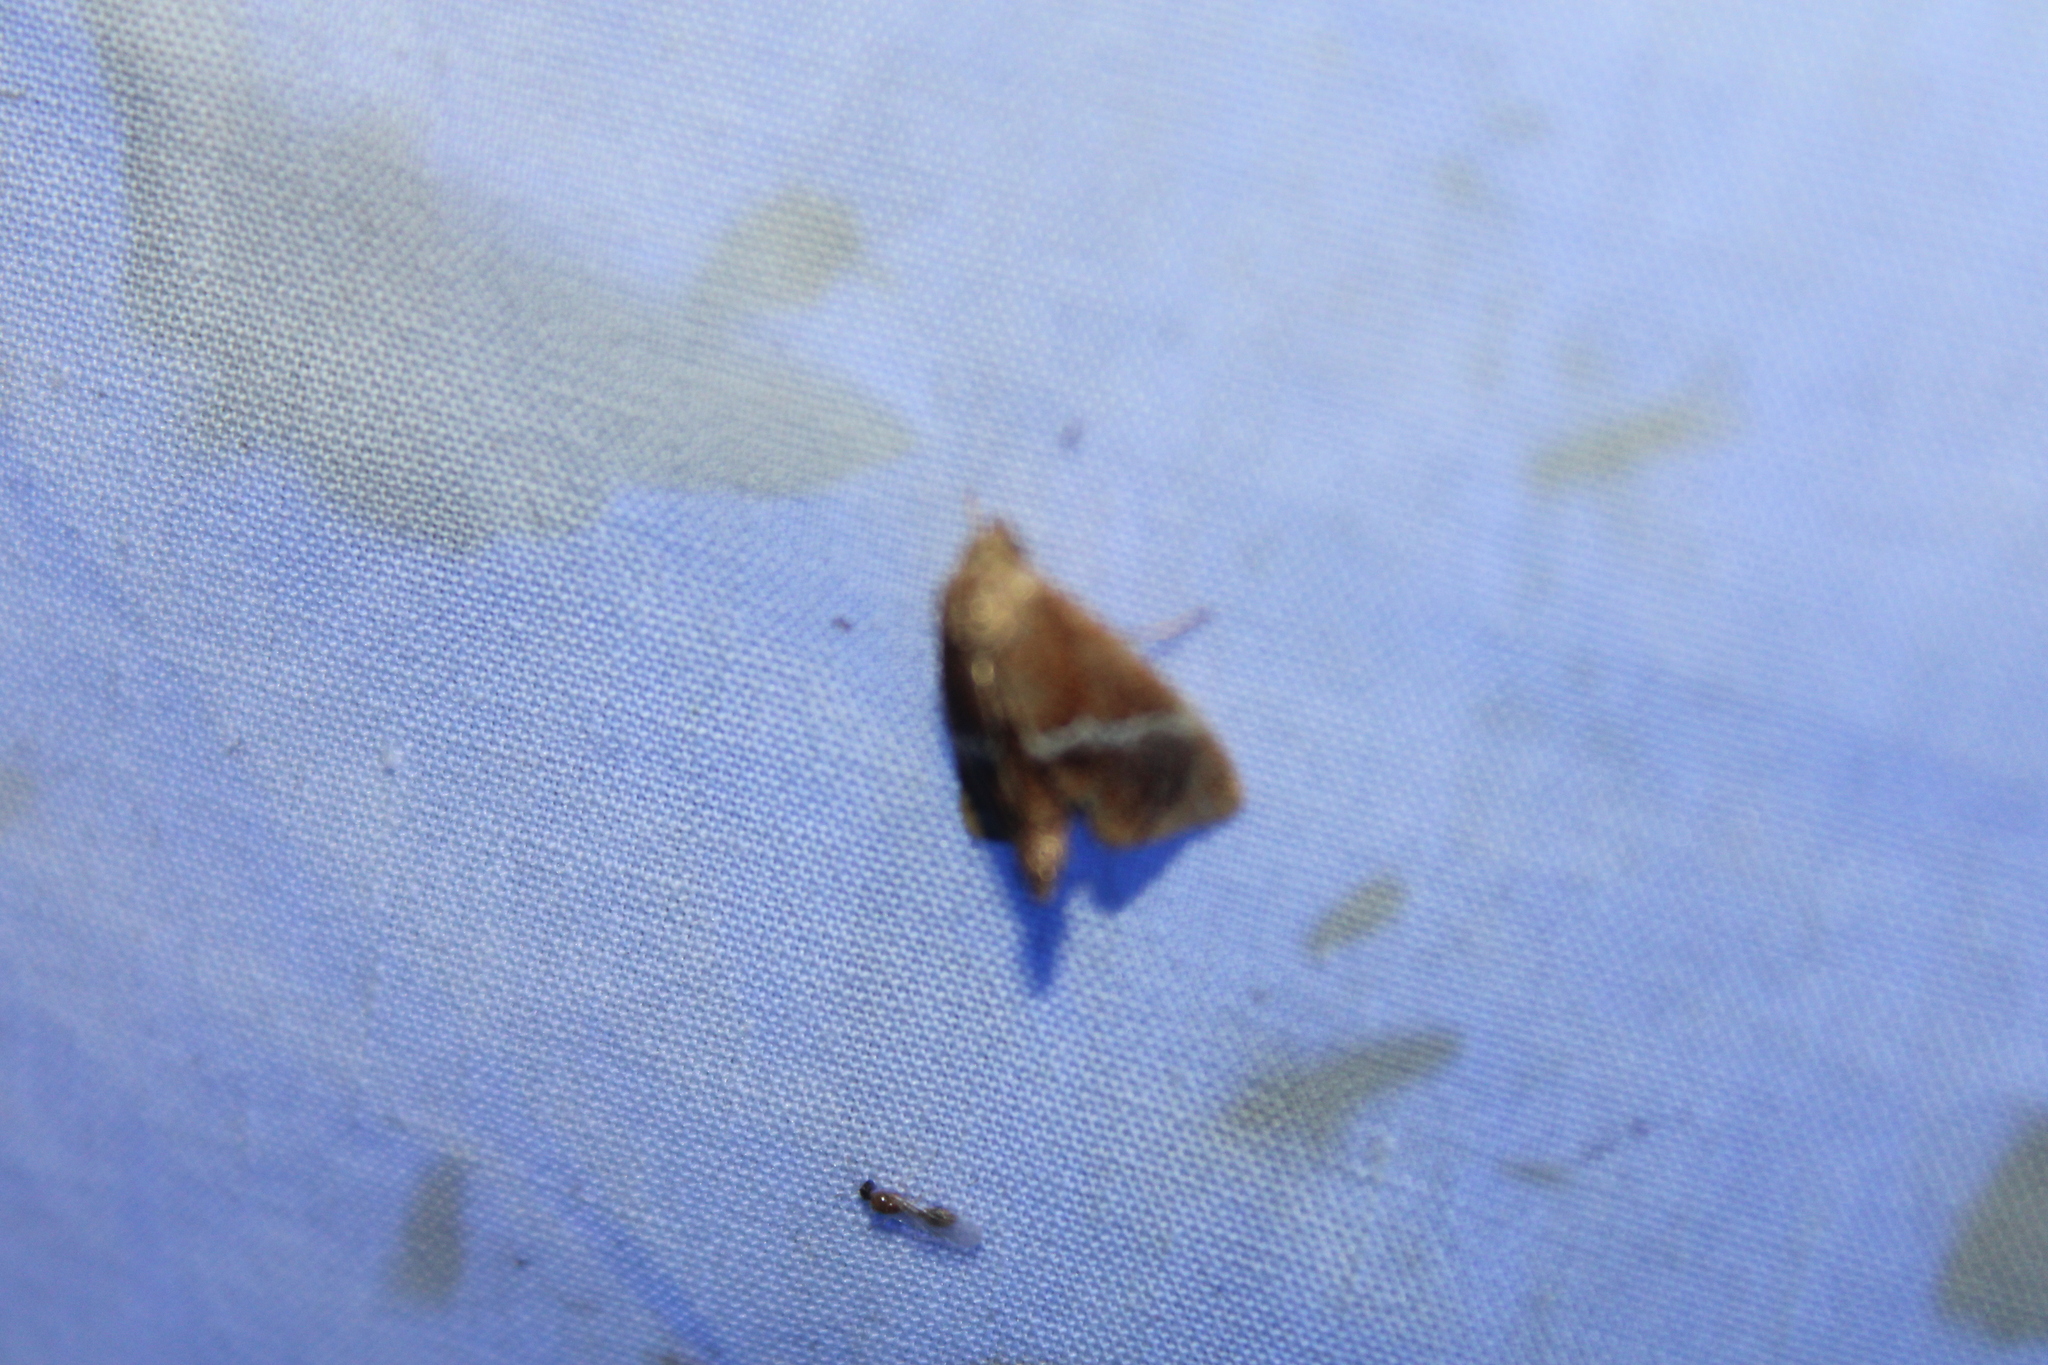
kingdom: Animalia
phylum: Arthropoda
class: Insecta
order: Lepidoptera
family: Limacodidae
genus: Lithacodes
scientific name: Lithacodes fasciola
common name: Yellow-shouldered slug moth
